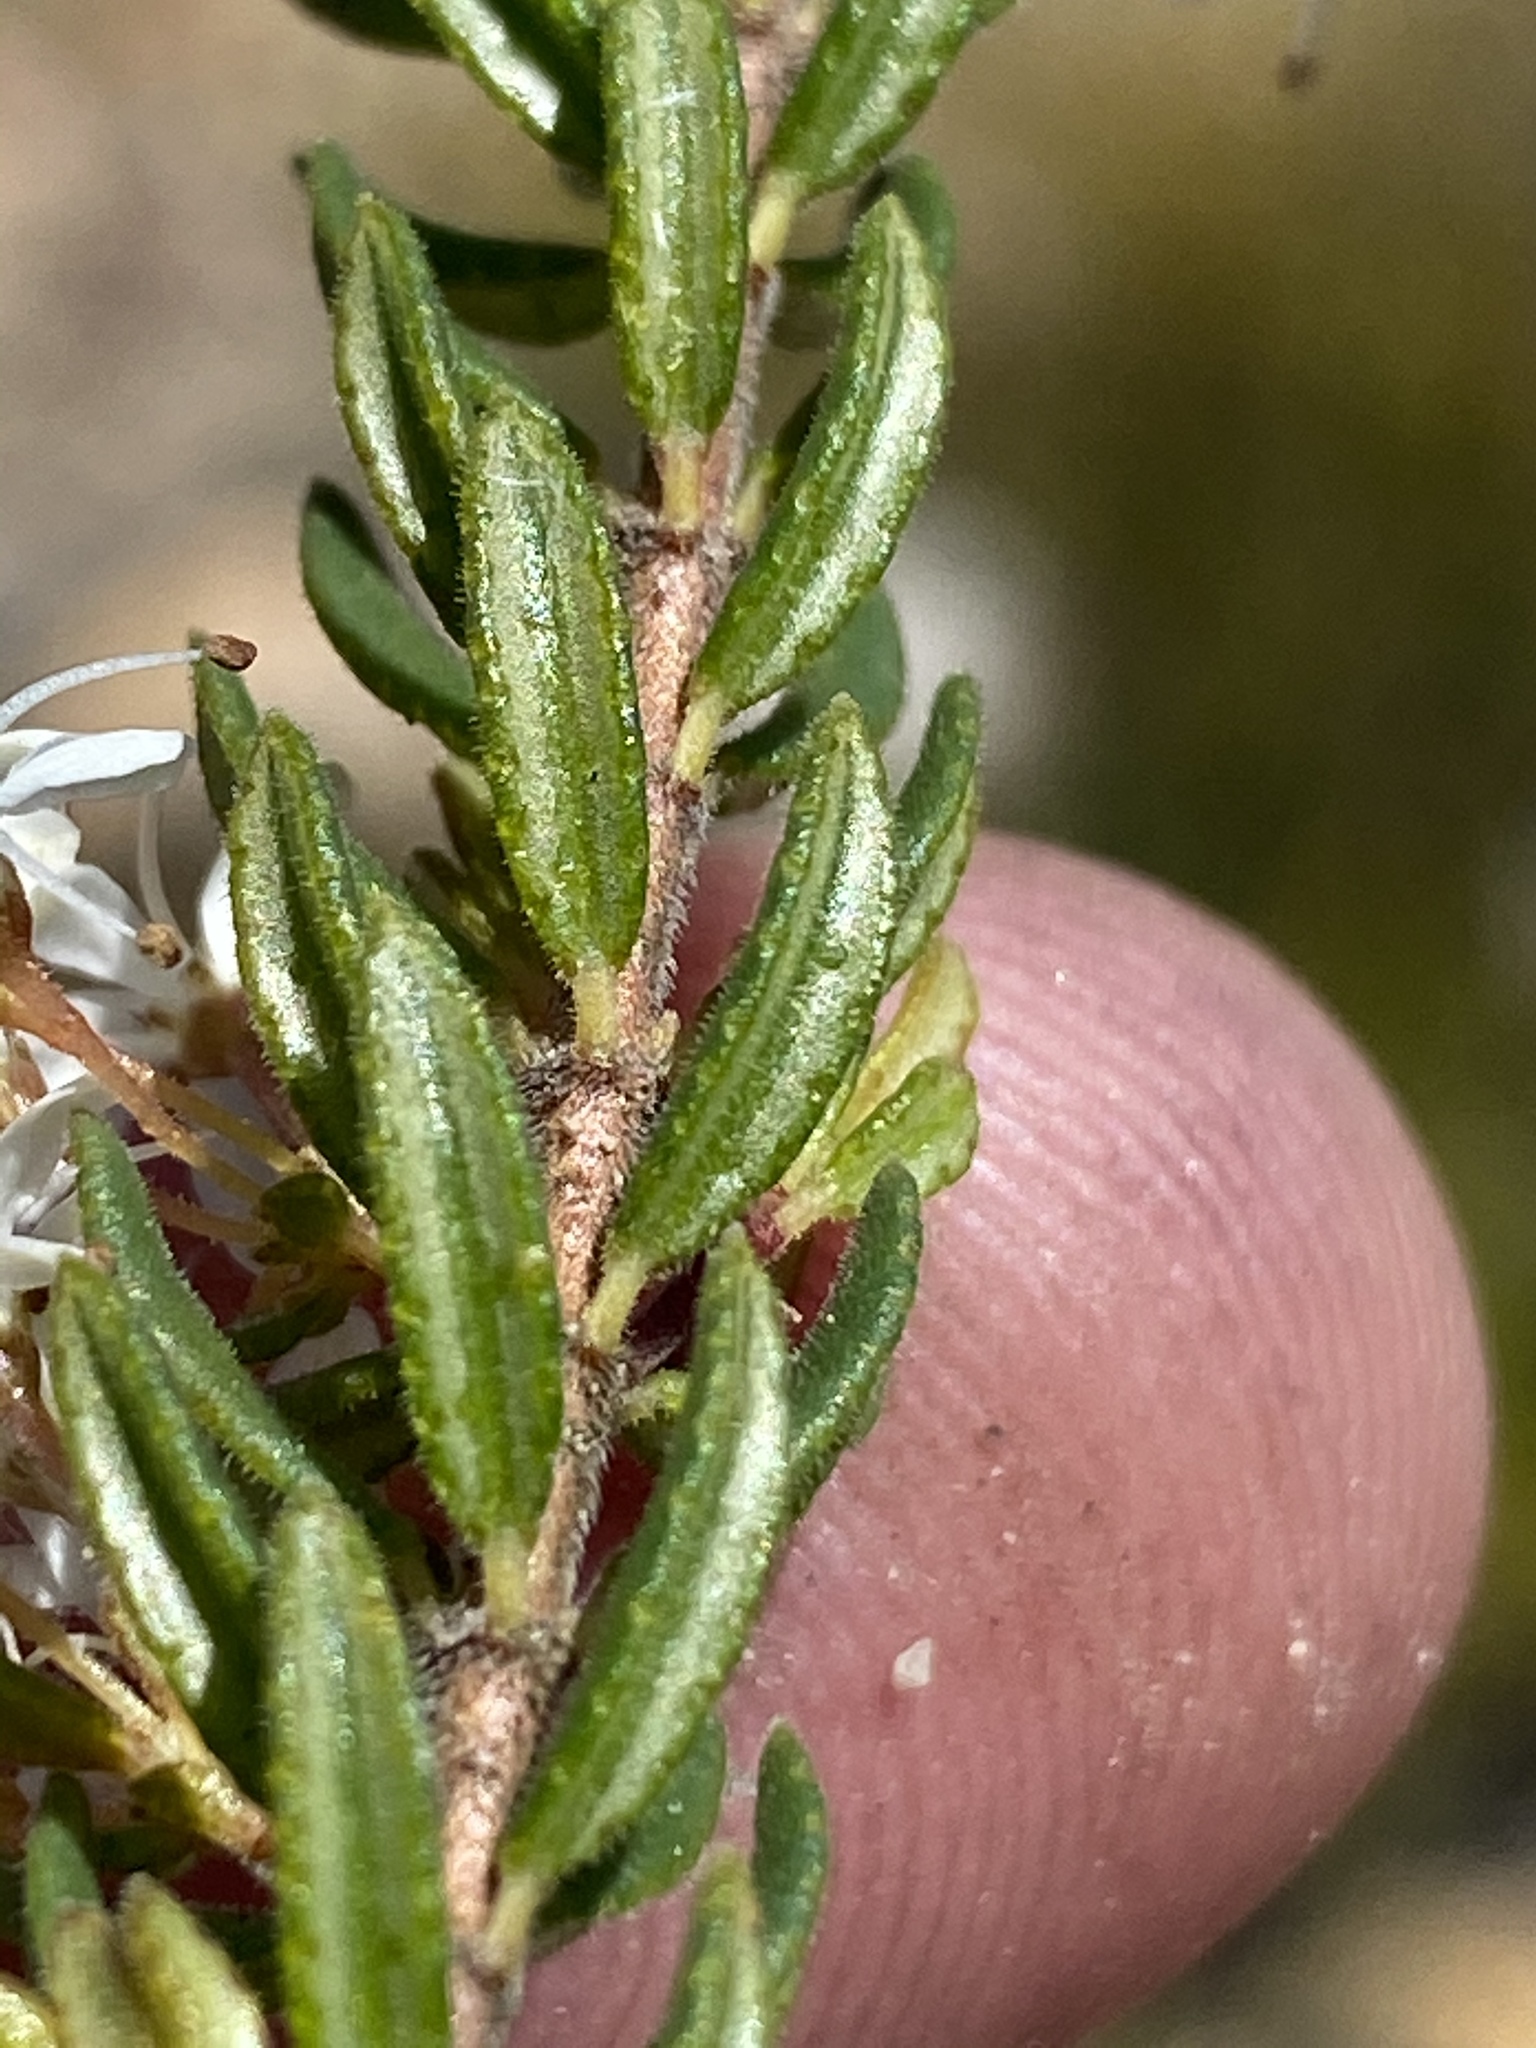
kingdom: Plantae
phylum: Tracheophyta
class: Magnoliopsida
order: Sapindales
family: Rutaceae
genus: Agathosma
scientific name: Agathosma mundtii
